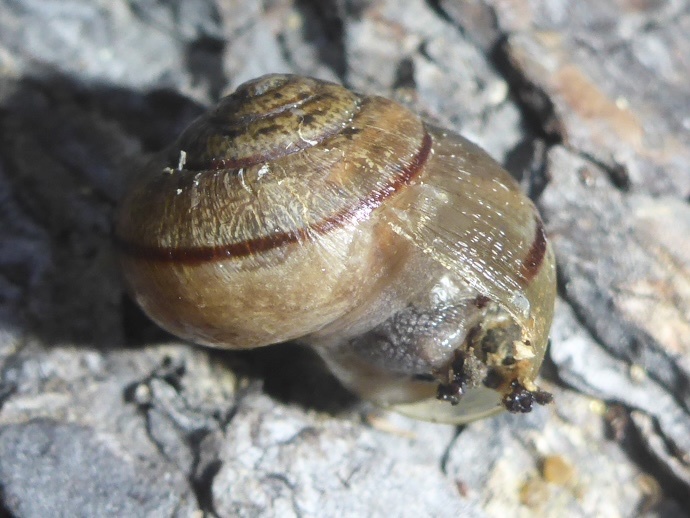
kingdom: Animalia
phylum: Mollusca
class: Gastropoda
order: Stylommatophora
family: Xanthonychidae
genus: Helminthoglypta
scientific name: Helminthoglypta nickliniana
